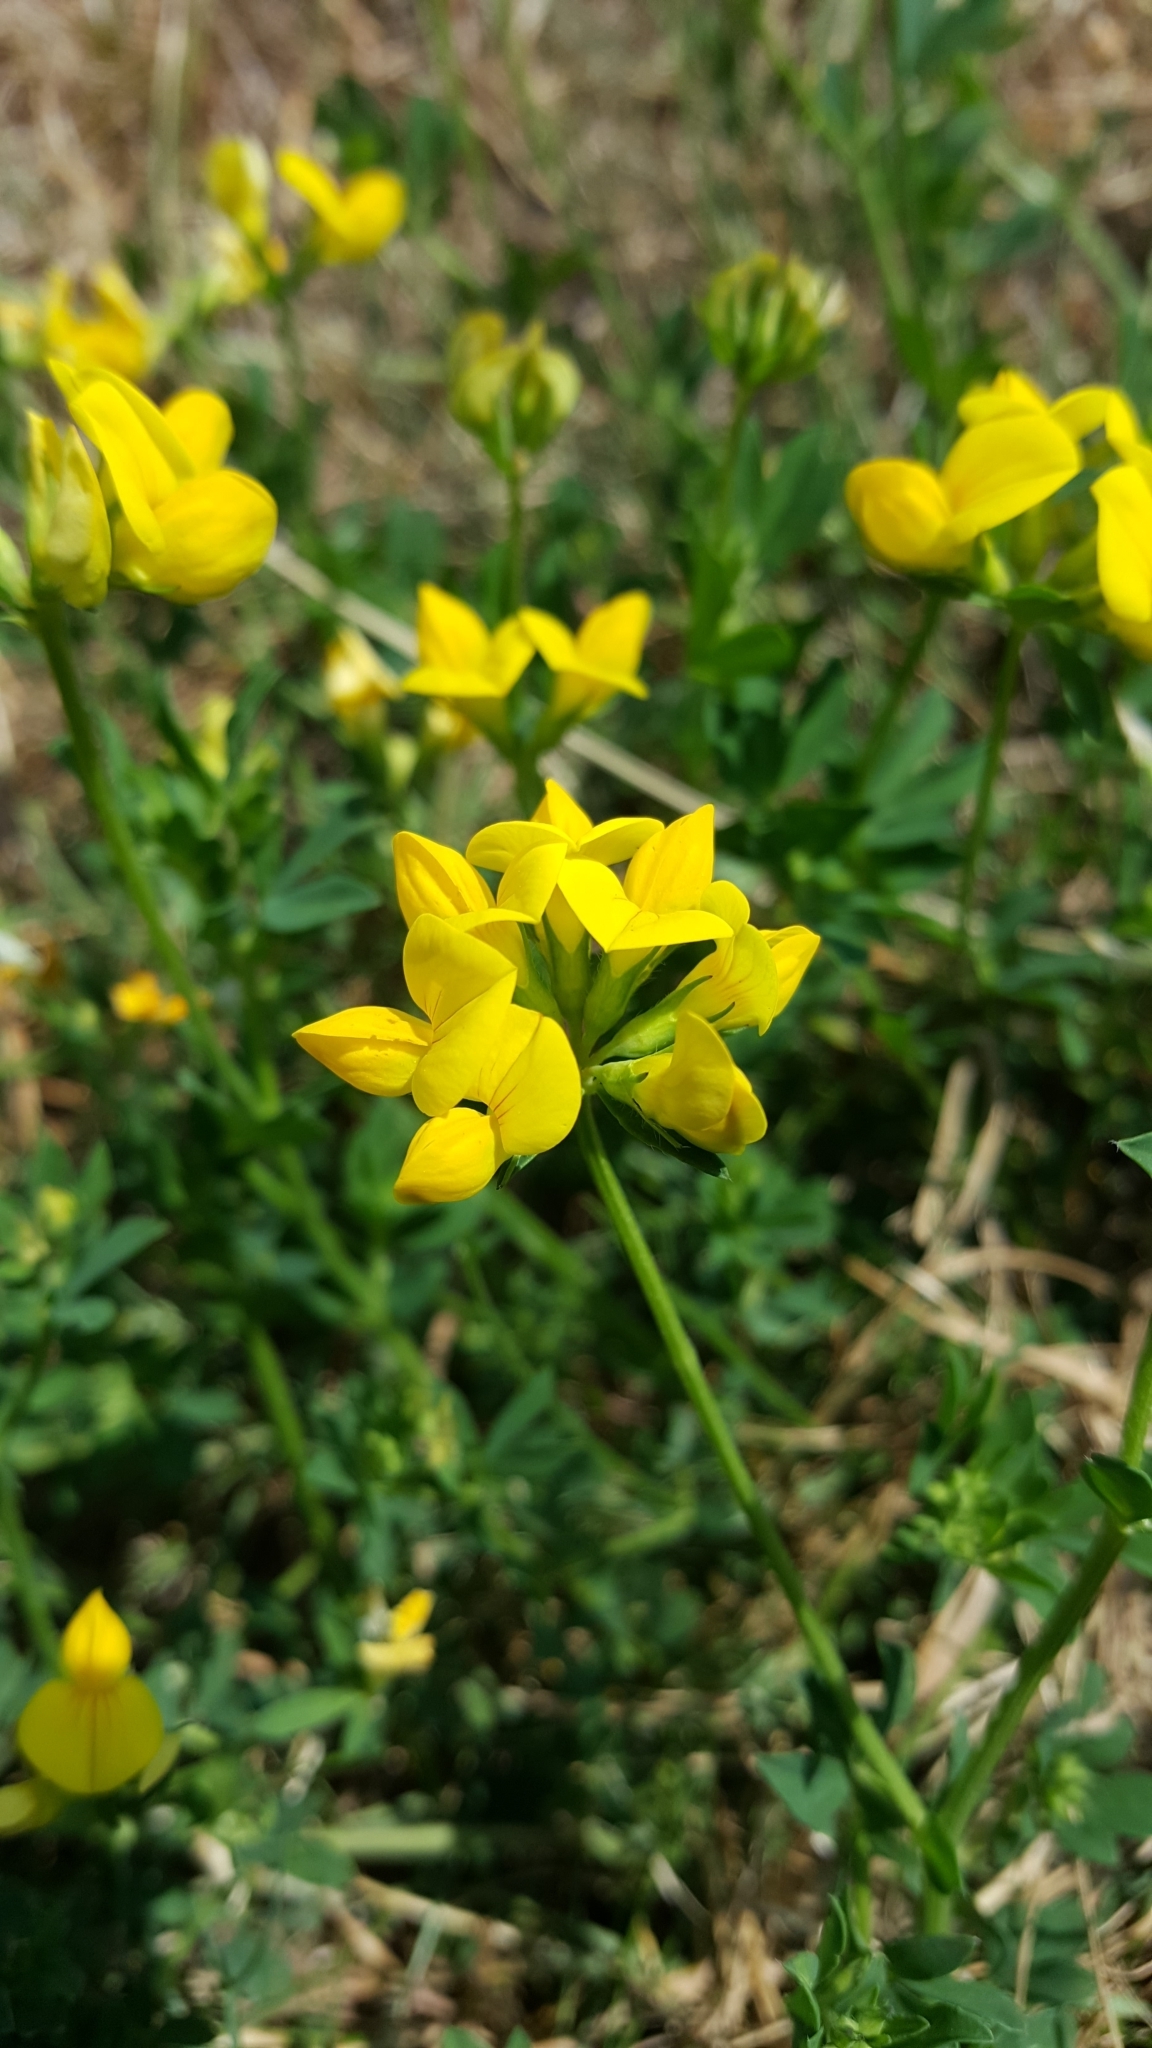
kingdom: Plantae
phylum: Tracheophyta
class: Magnoliopsida
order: Fabales
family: Fabaceae
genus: Lotus
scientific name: Lotus corniculatus
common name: Common bird's-foot-trefoil
